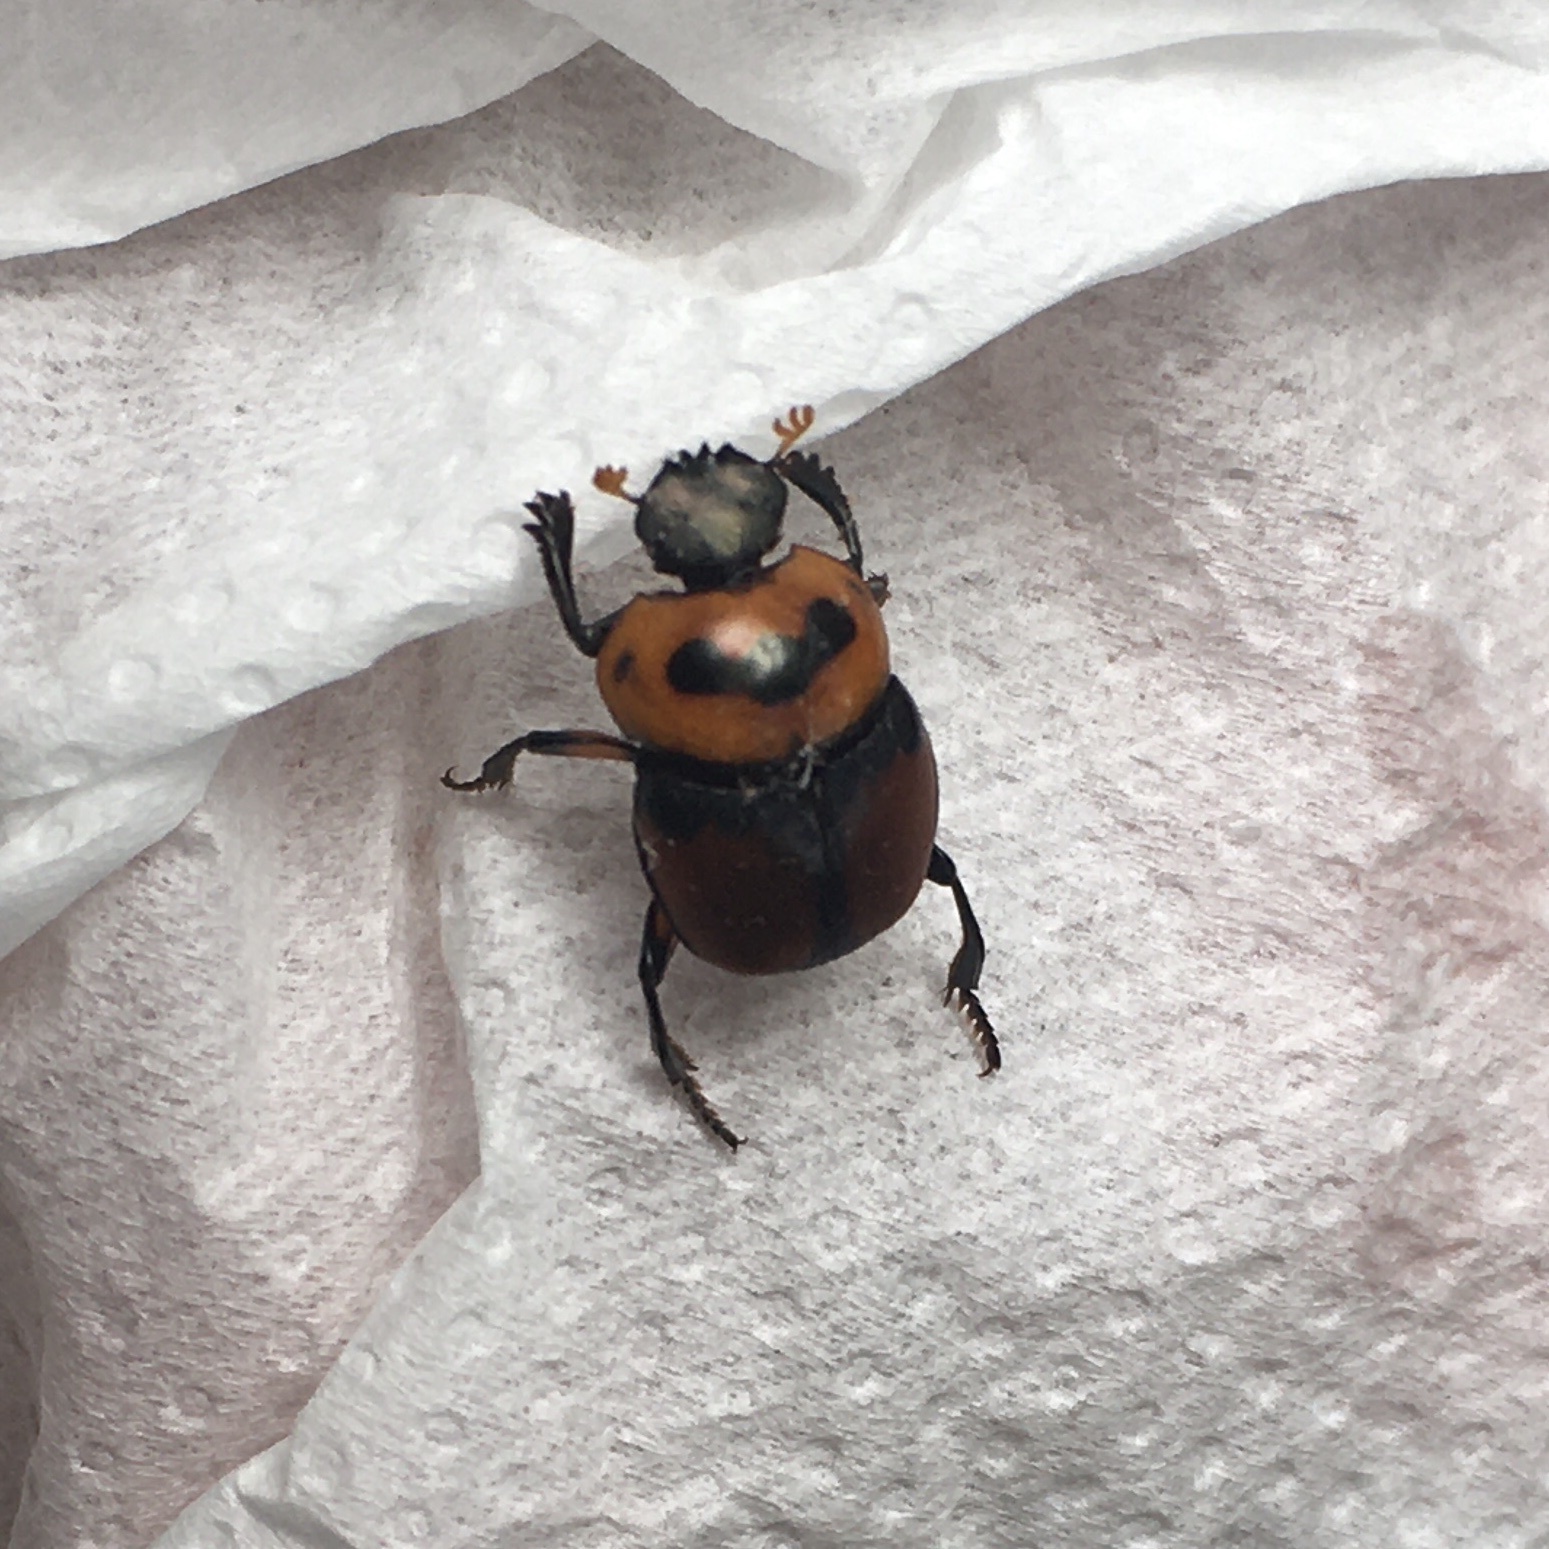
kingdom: Animalia
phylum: Arthropoda
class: Insecta
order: Coleoptera
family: Scarabaeidae
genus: Canthon
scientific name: Canthon quinquemaculatus
